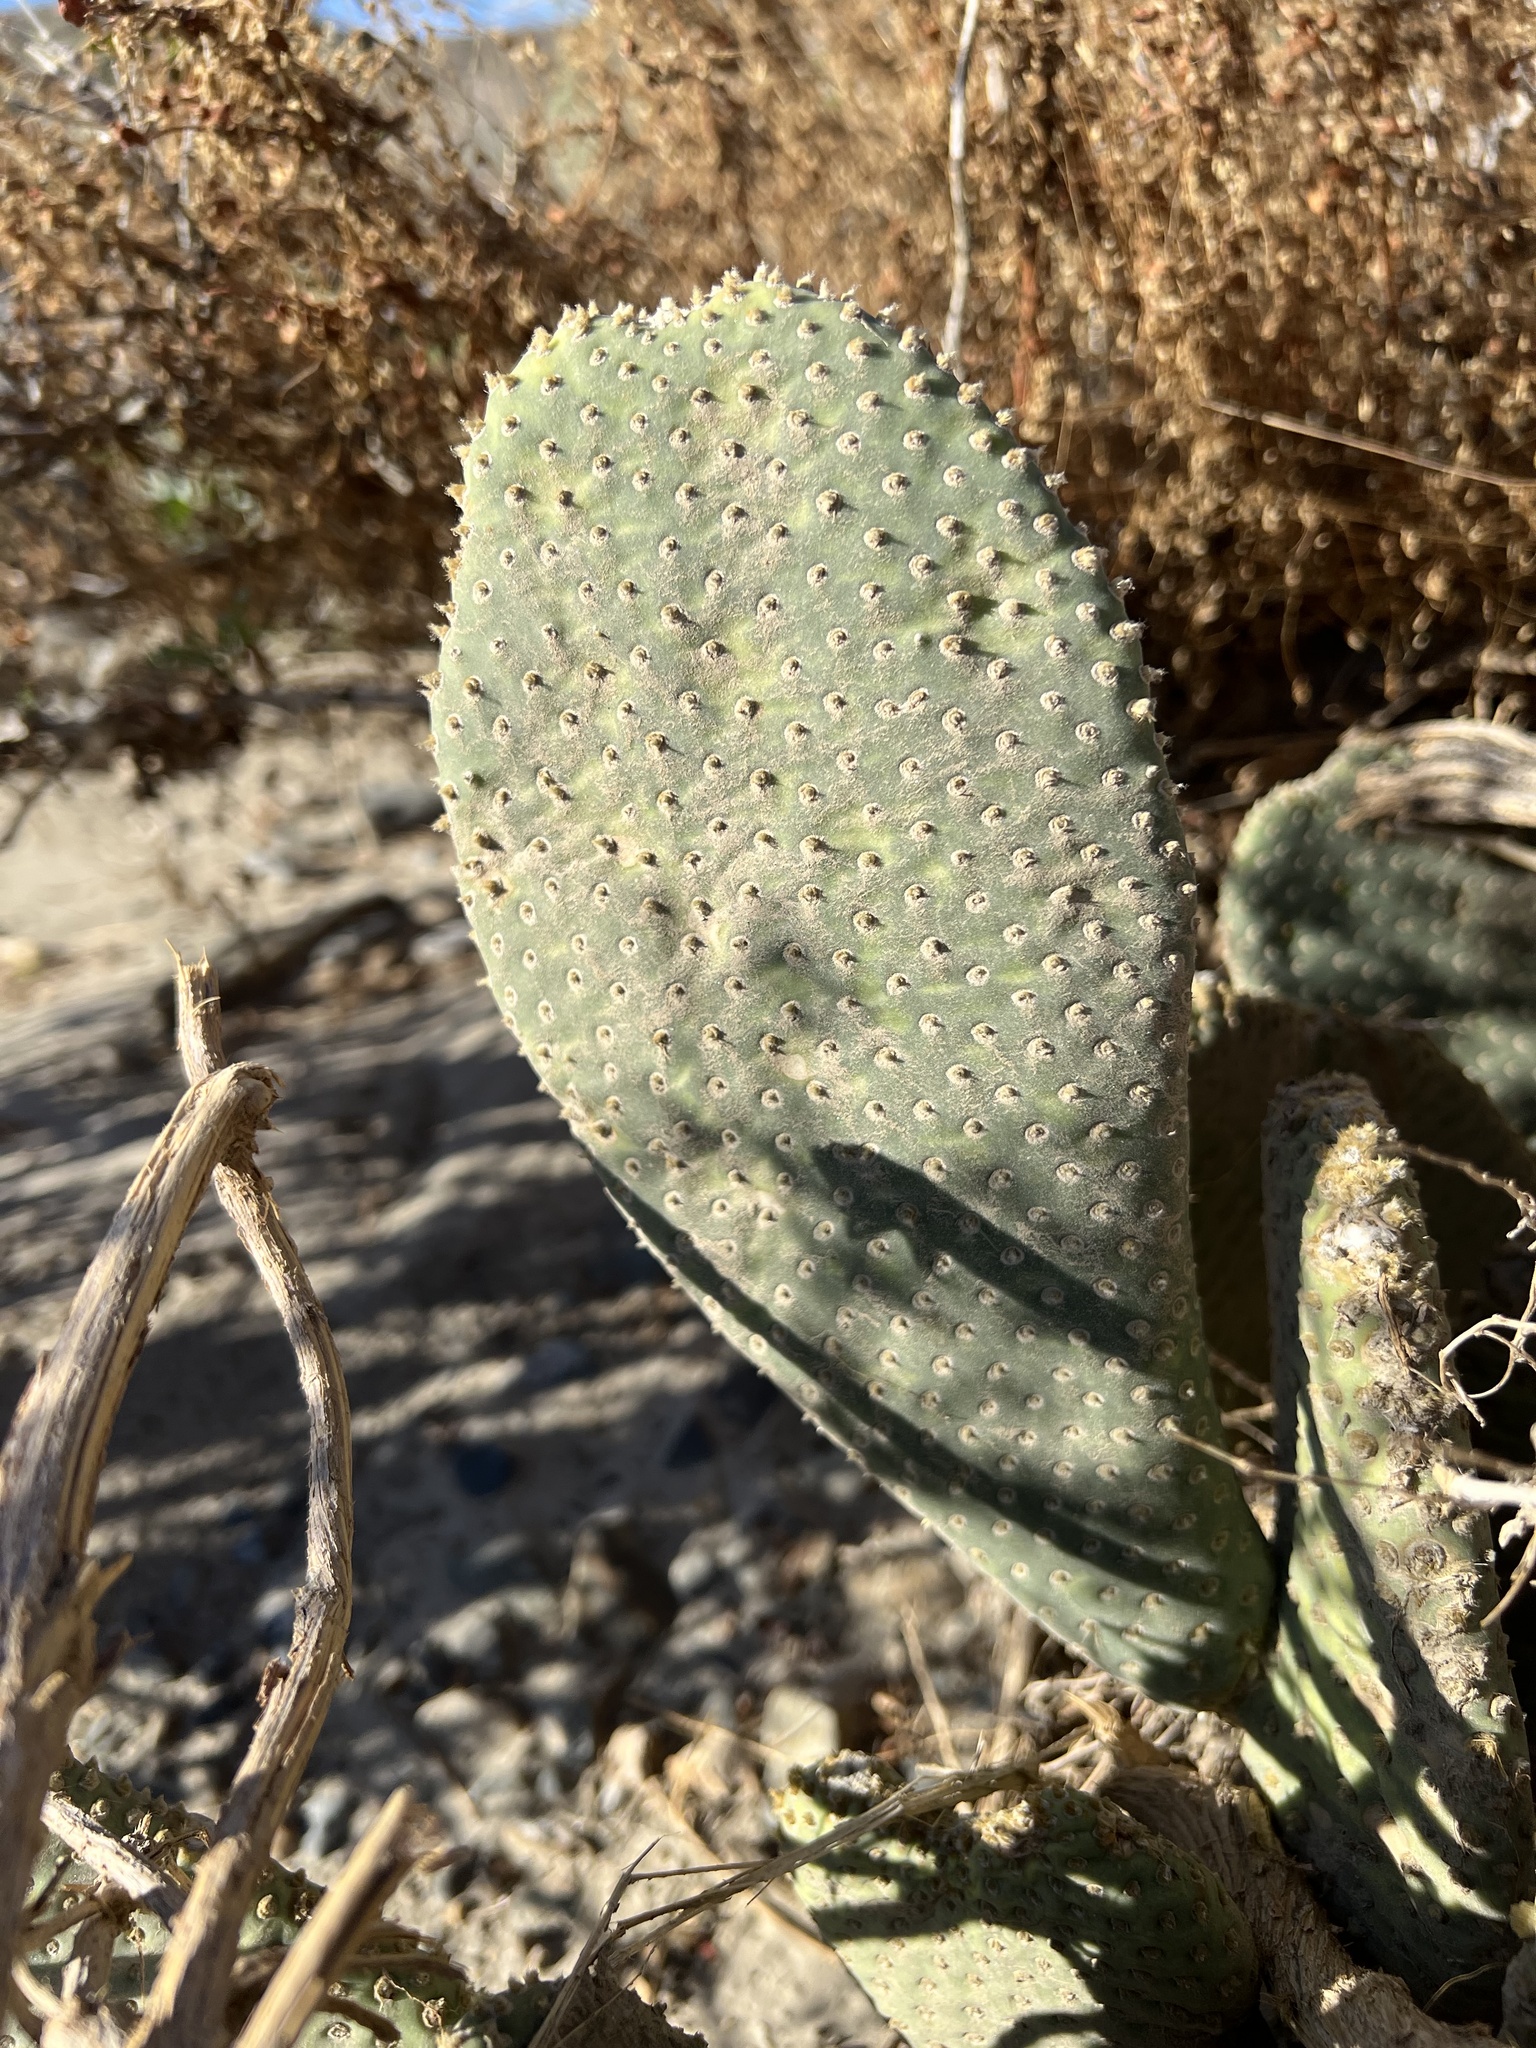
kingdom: Plantae
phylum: Tracheophyta
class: Magnoliopsida
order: Caryophyllales
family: Cactaceae
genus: Opuntia
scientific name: Opuntia basilaris
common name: Beavertail prickly-pear
